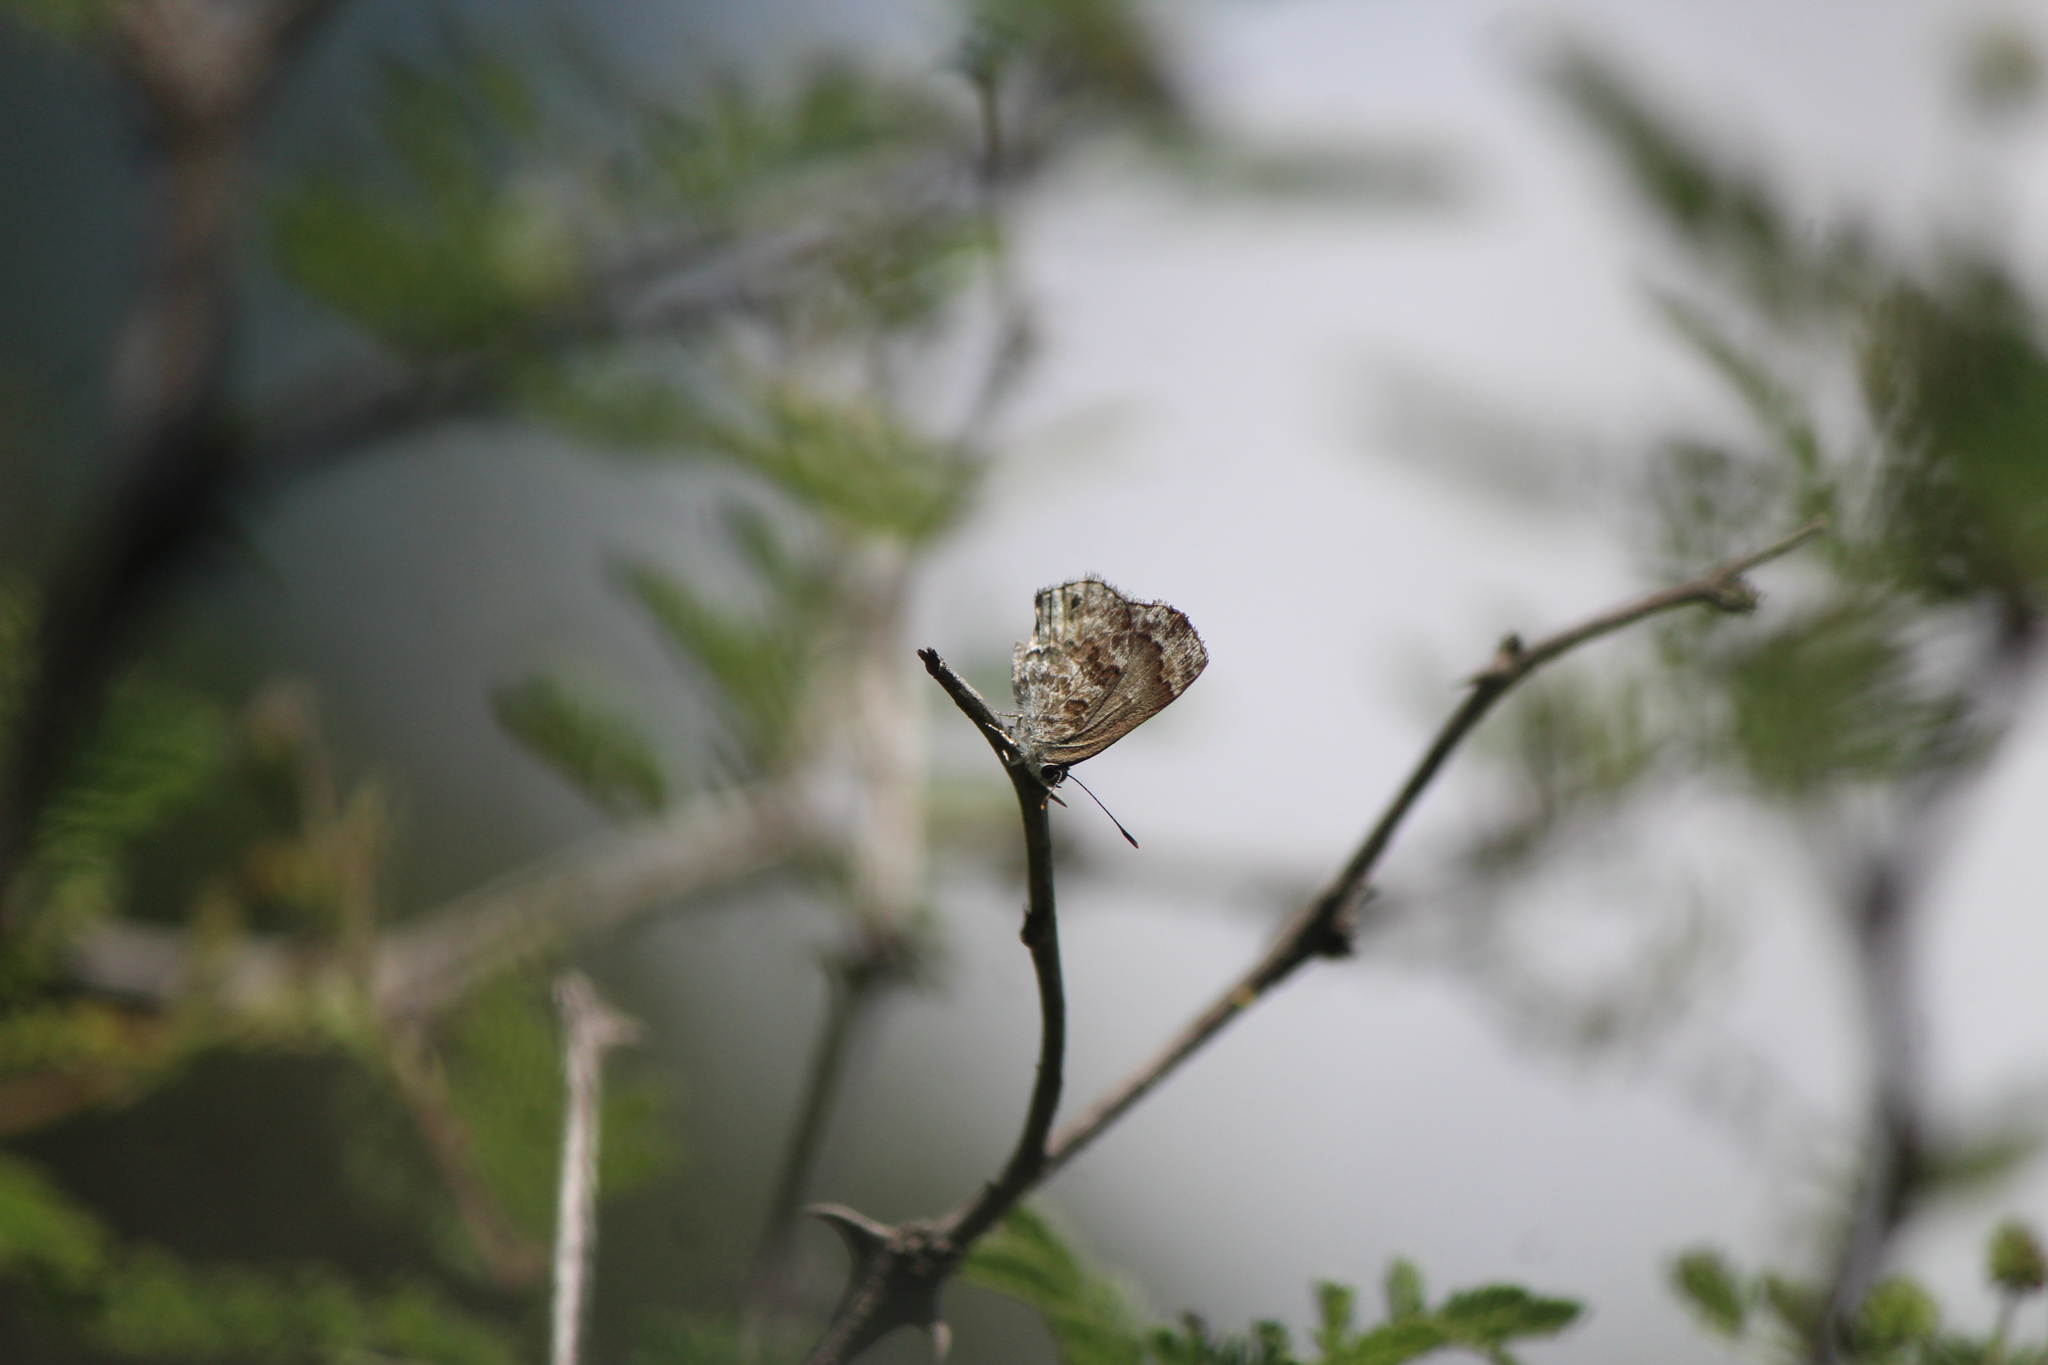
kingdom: Animalia
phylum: Arthropoda
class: Insecta
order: Lepidoptera
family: Lycaenidae
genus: Thecla
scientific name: Thecla cestri
